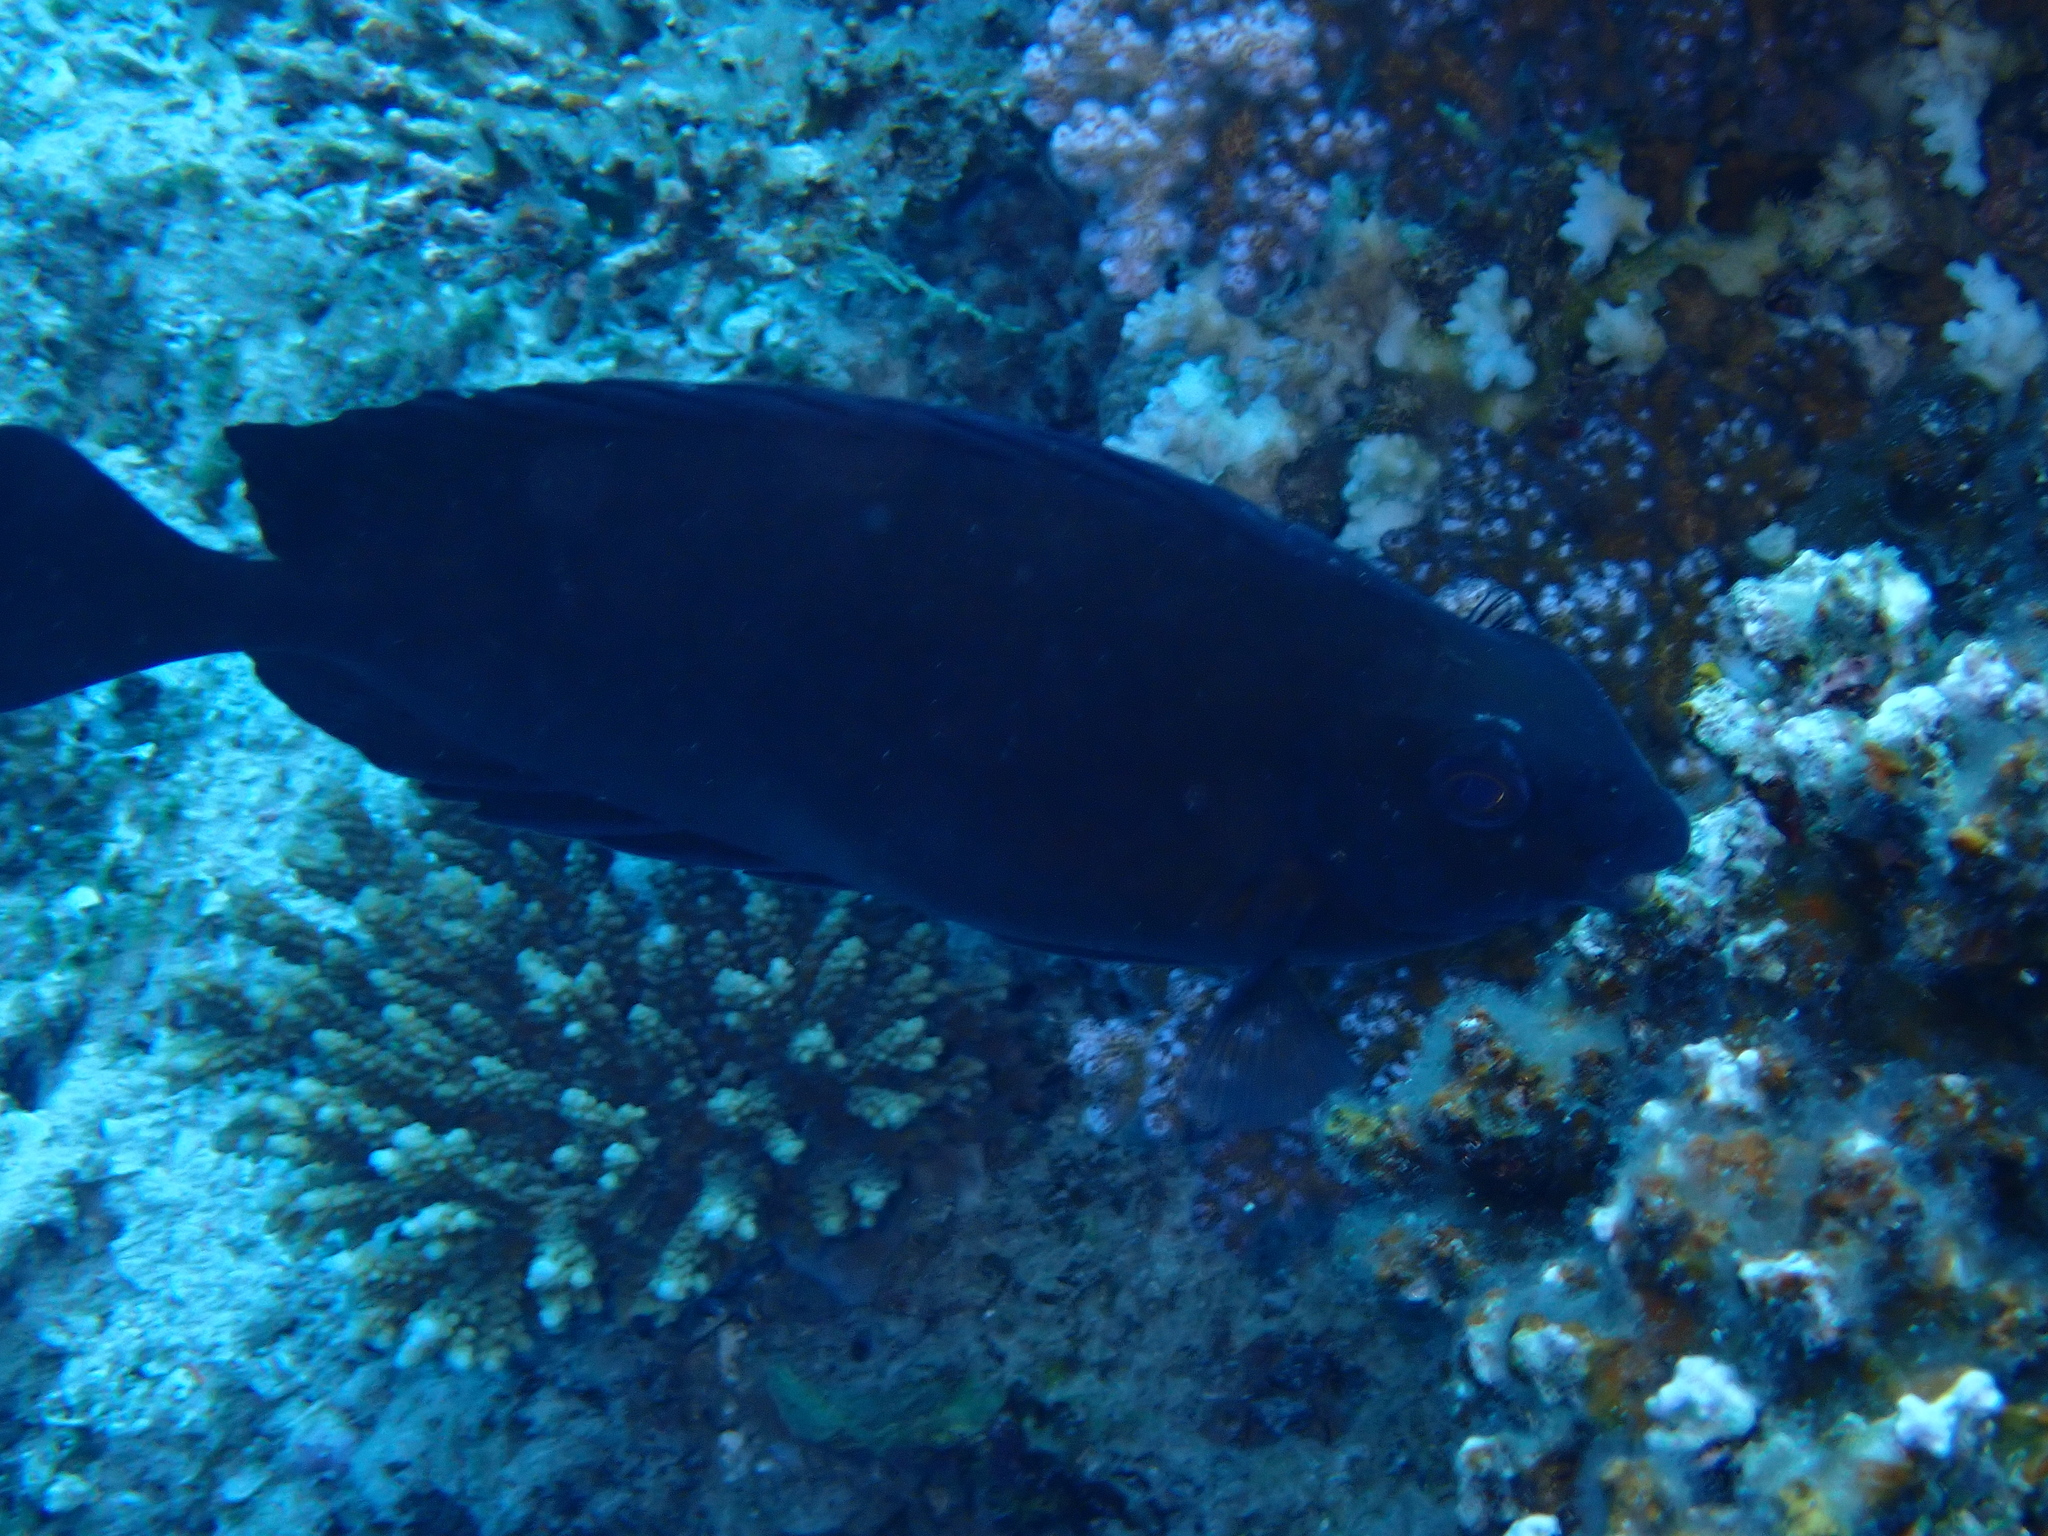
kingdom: Animalia
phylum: Chordata
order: Perciformes
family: Siganidae
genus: Siganus
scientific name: Siganus luridus
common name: Dusky spinefoot
